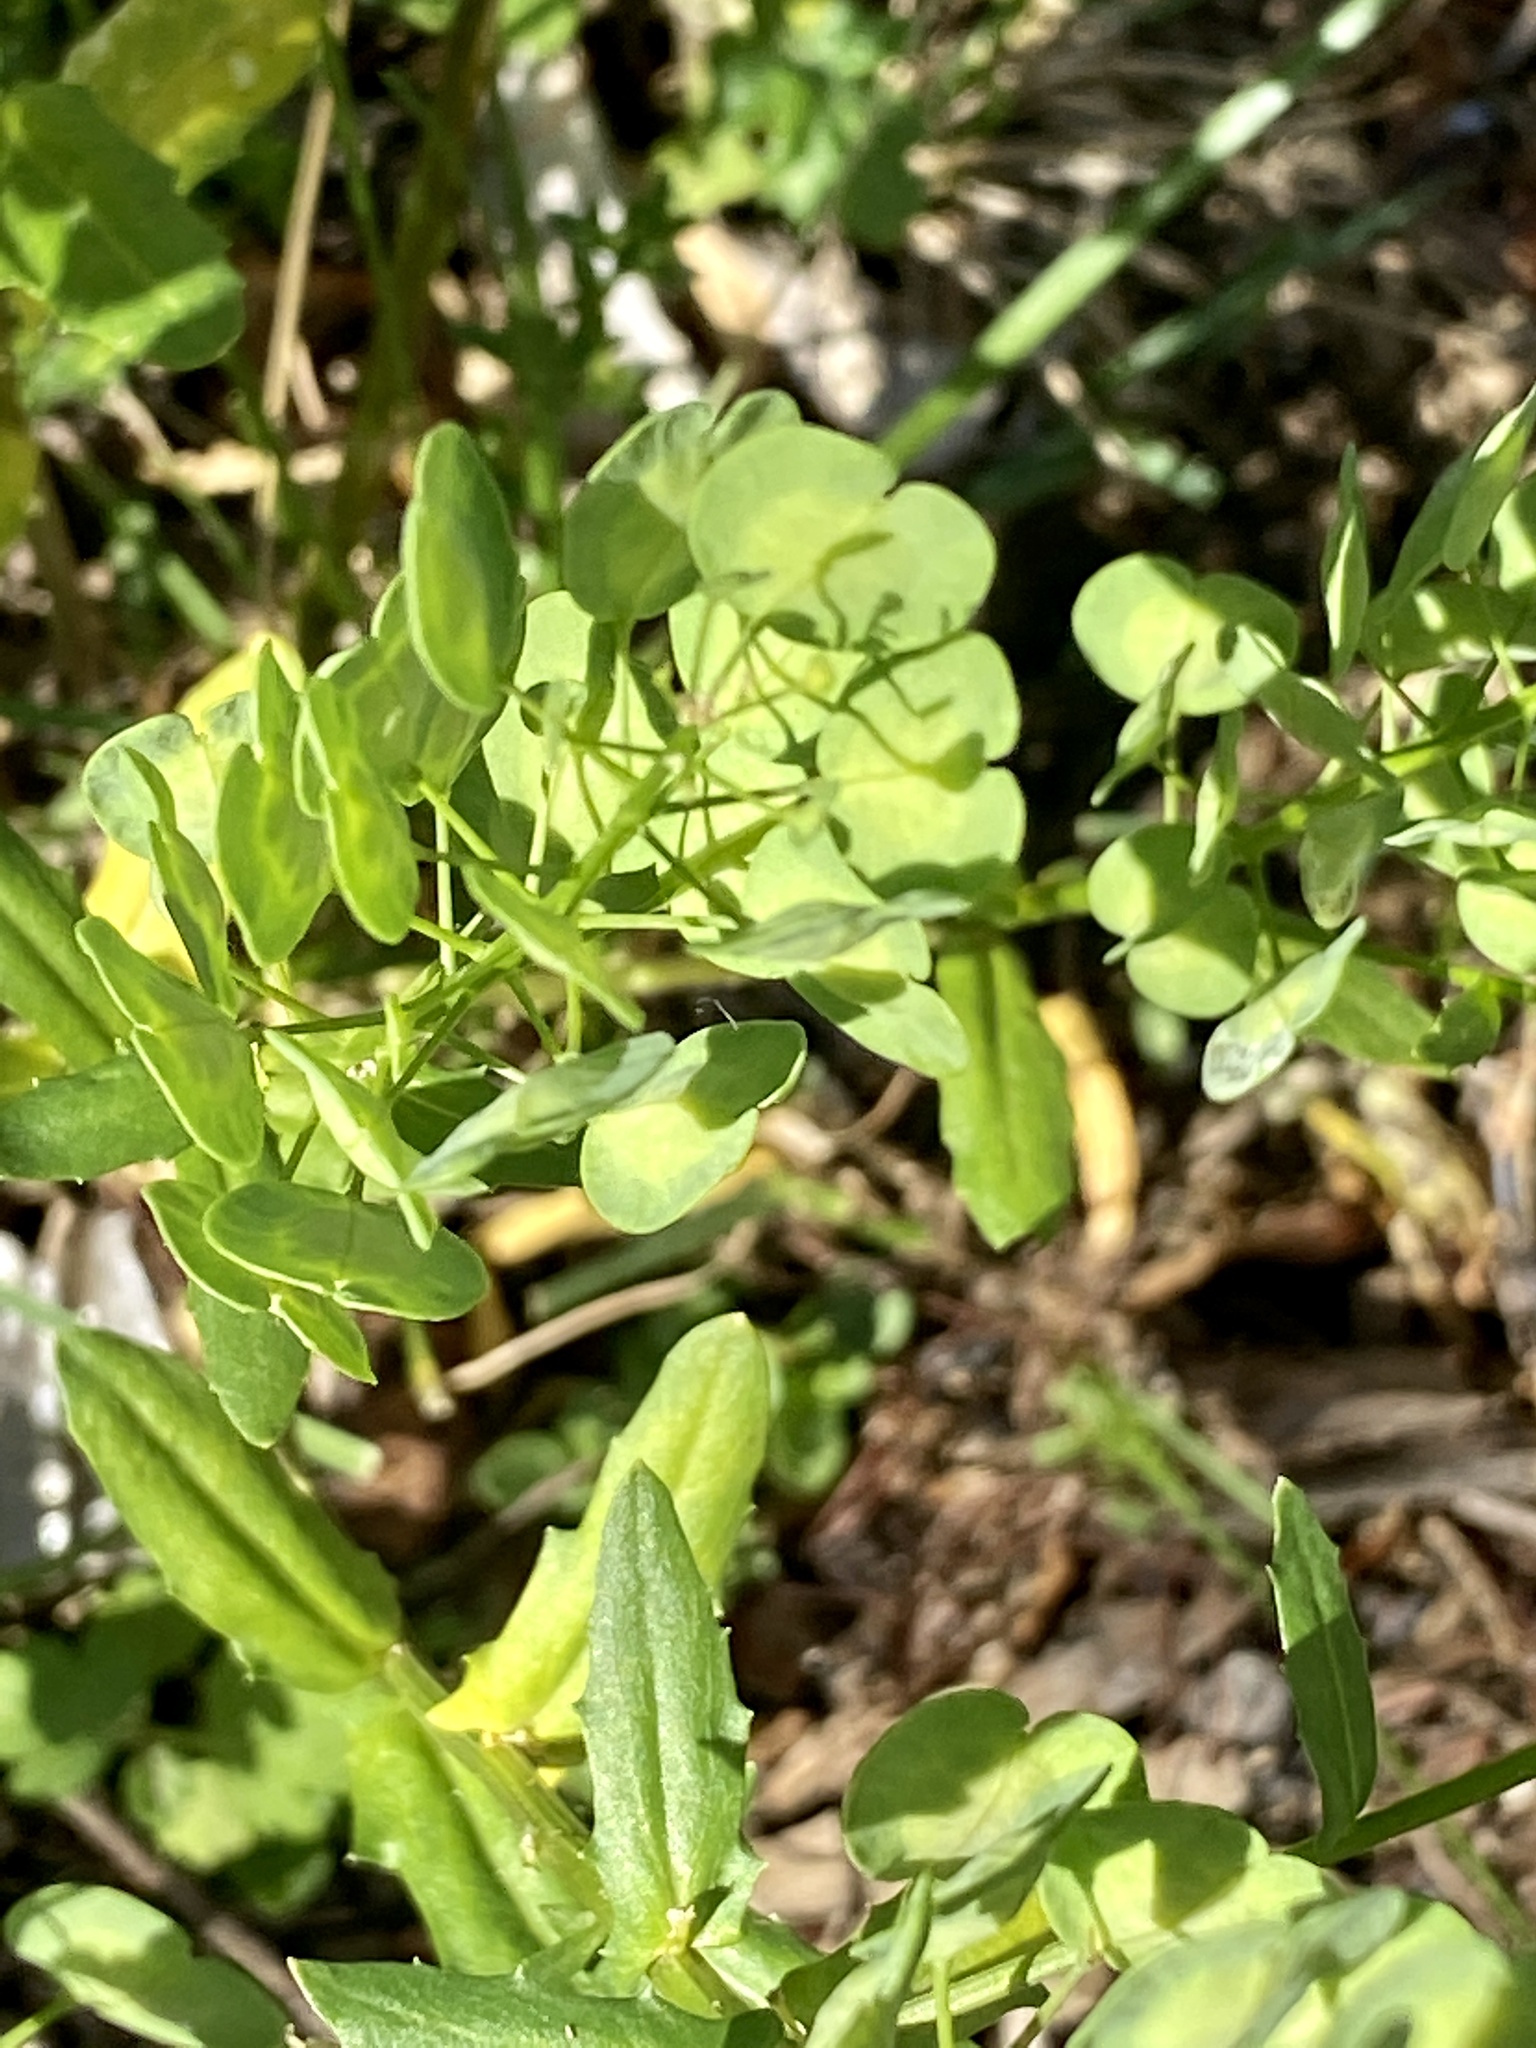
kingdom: Plantae
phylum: Tracheophyta
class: Magnoliopsida
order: Brassicales
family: Brassicaceae
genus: Thlaspi
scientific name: Thlaspi arvense
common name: Field pennycress
